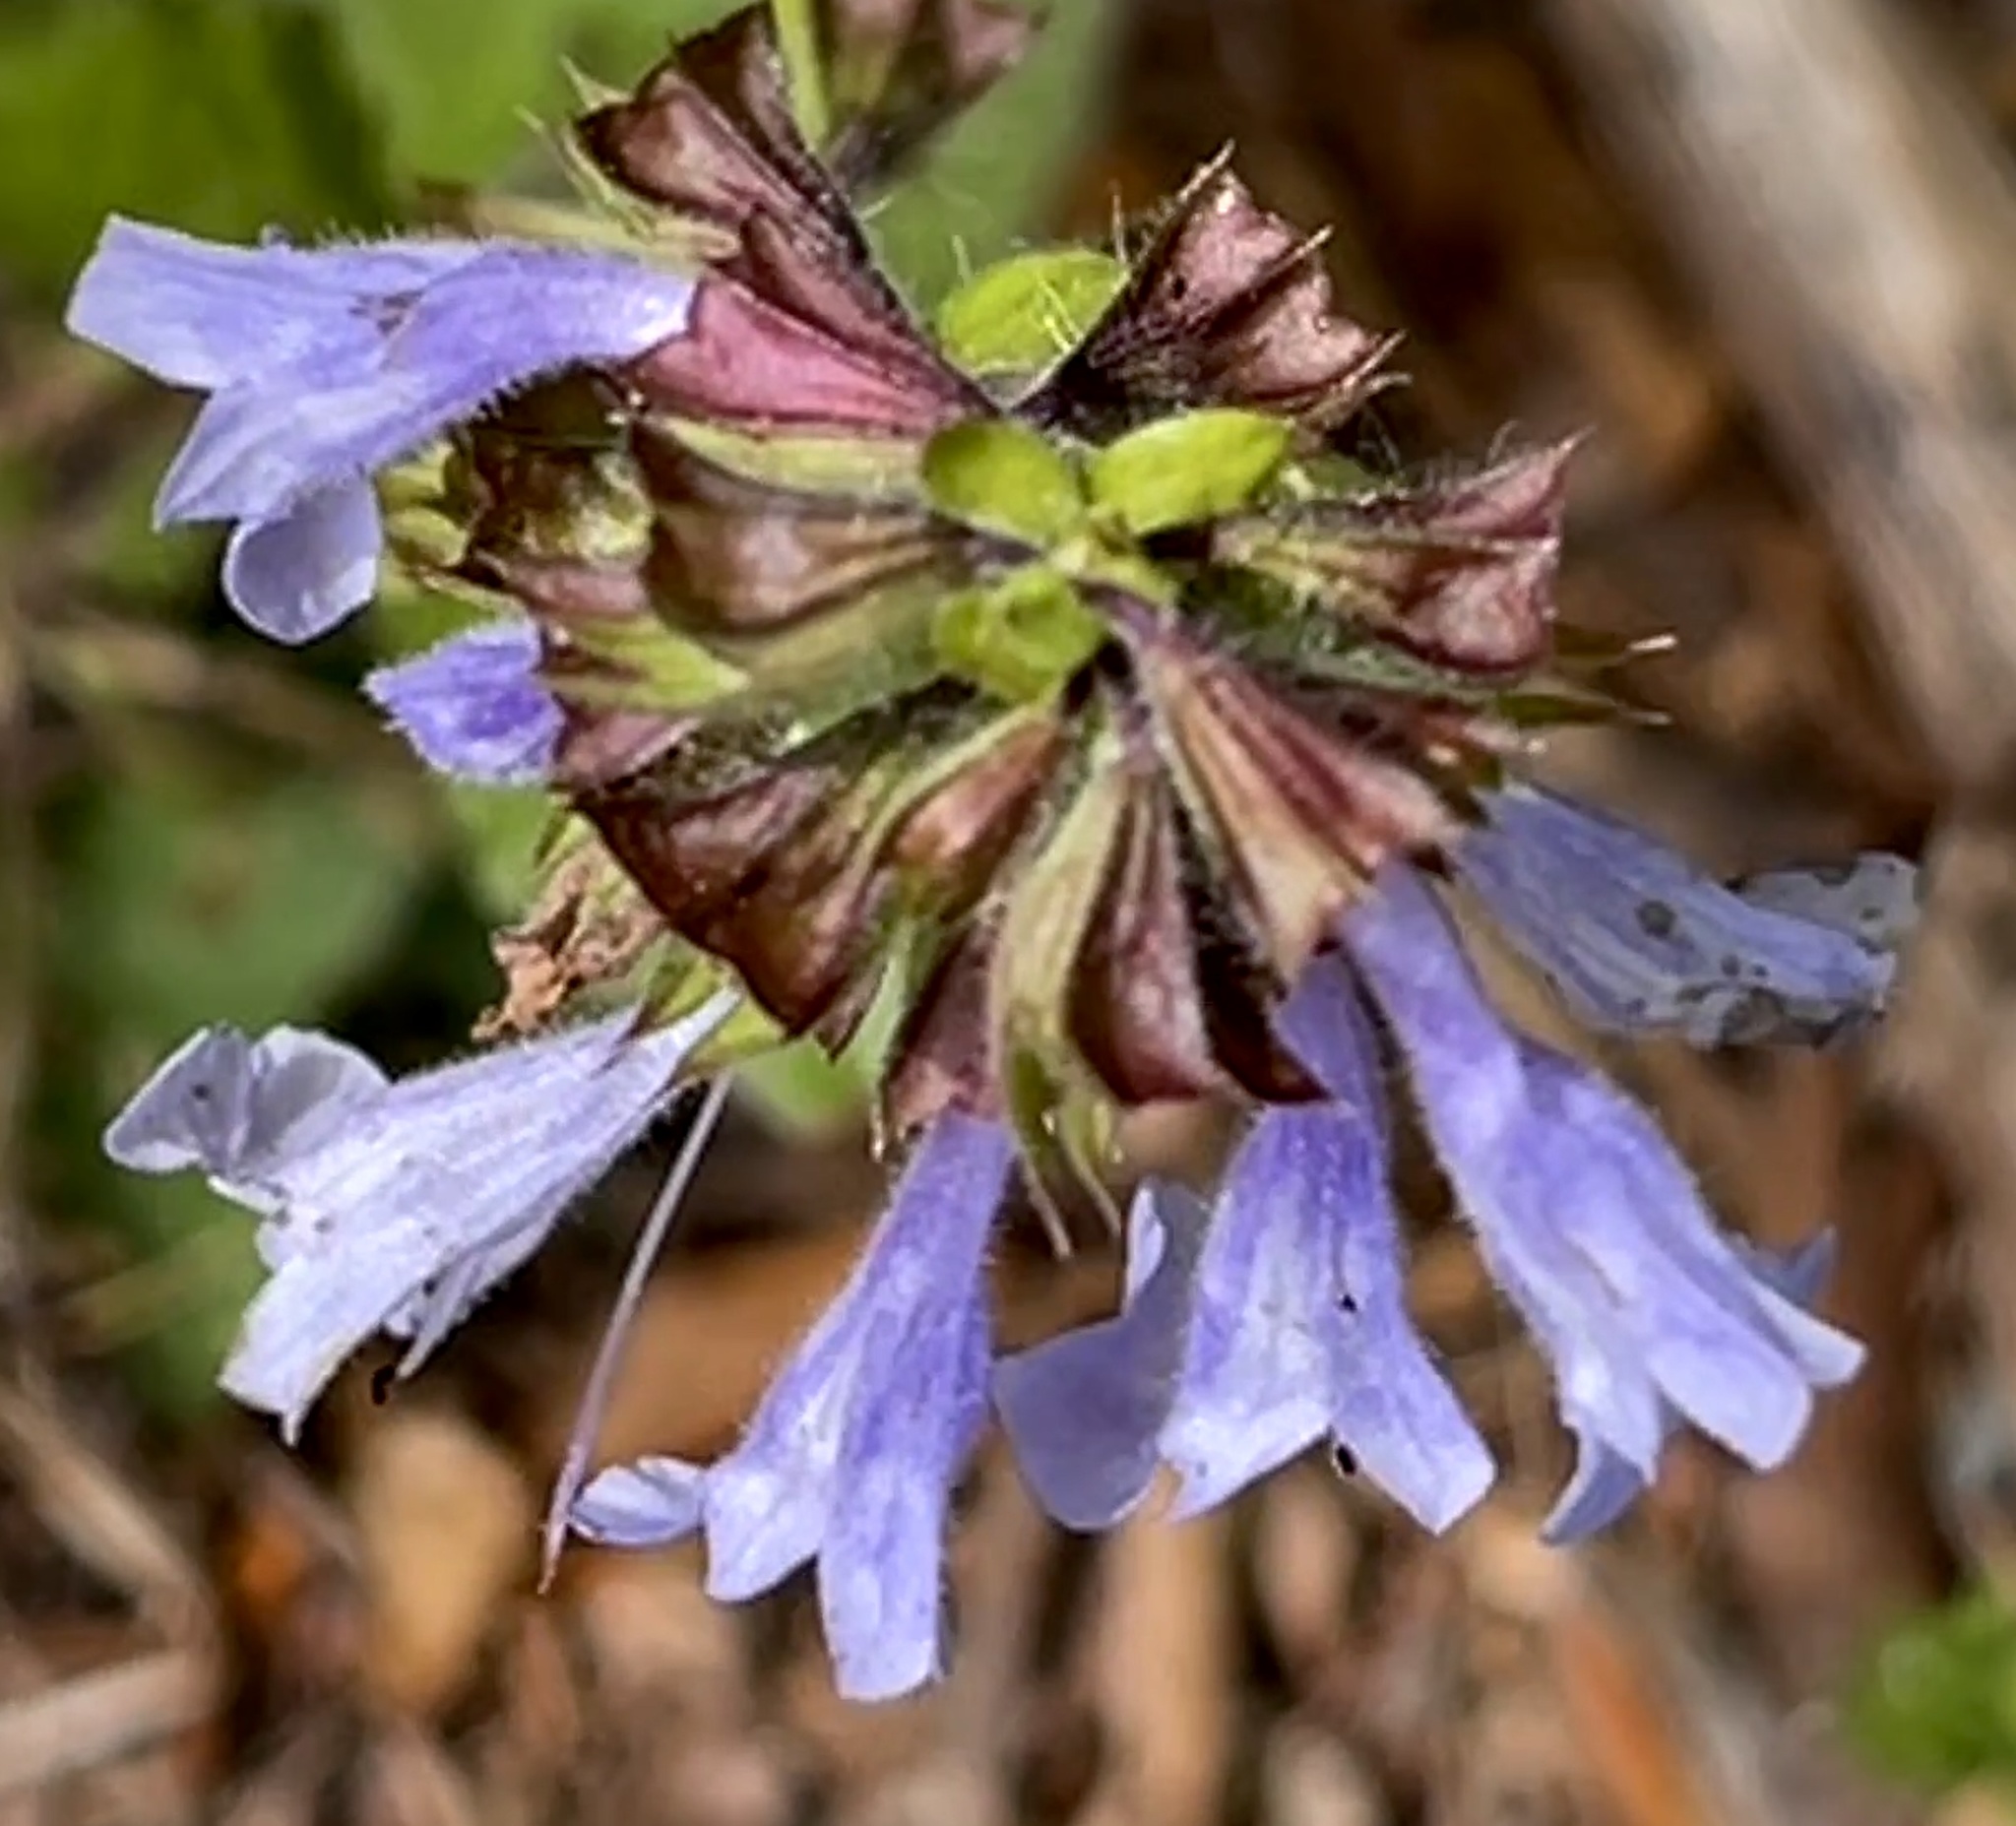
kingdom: Plantae
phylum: Tracheophyta
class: Magnoliopsida
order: Lamiales
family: Lamiaceae
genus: Salvia
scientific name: Salvia lyrata
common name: Cancerweed
